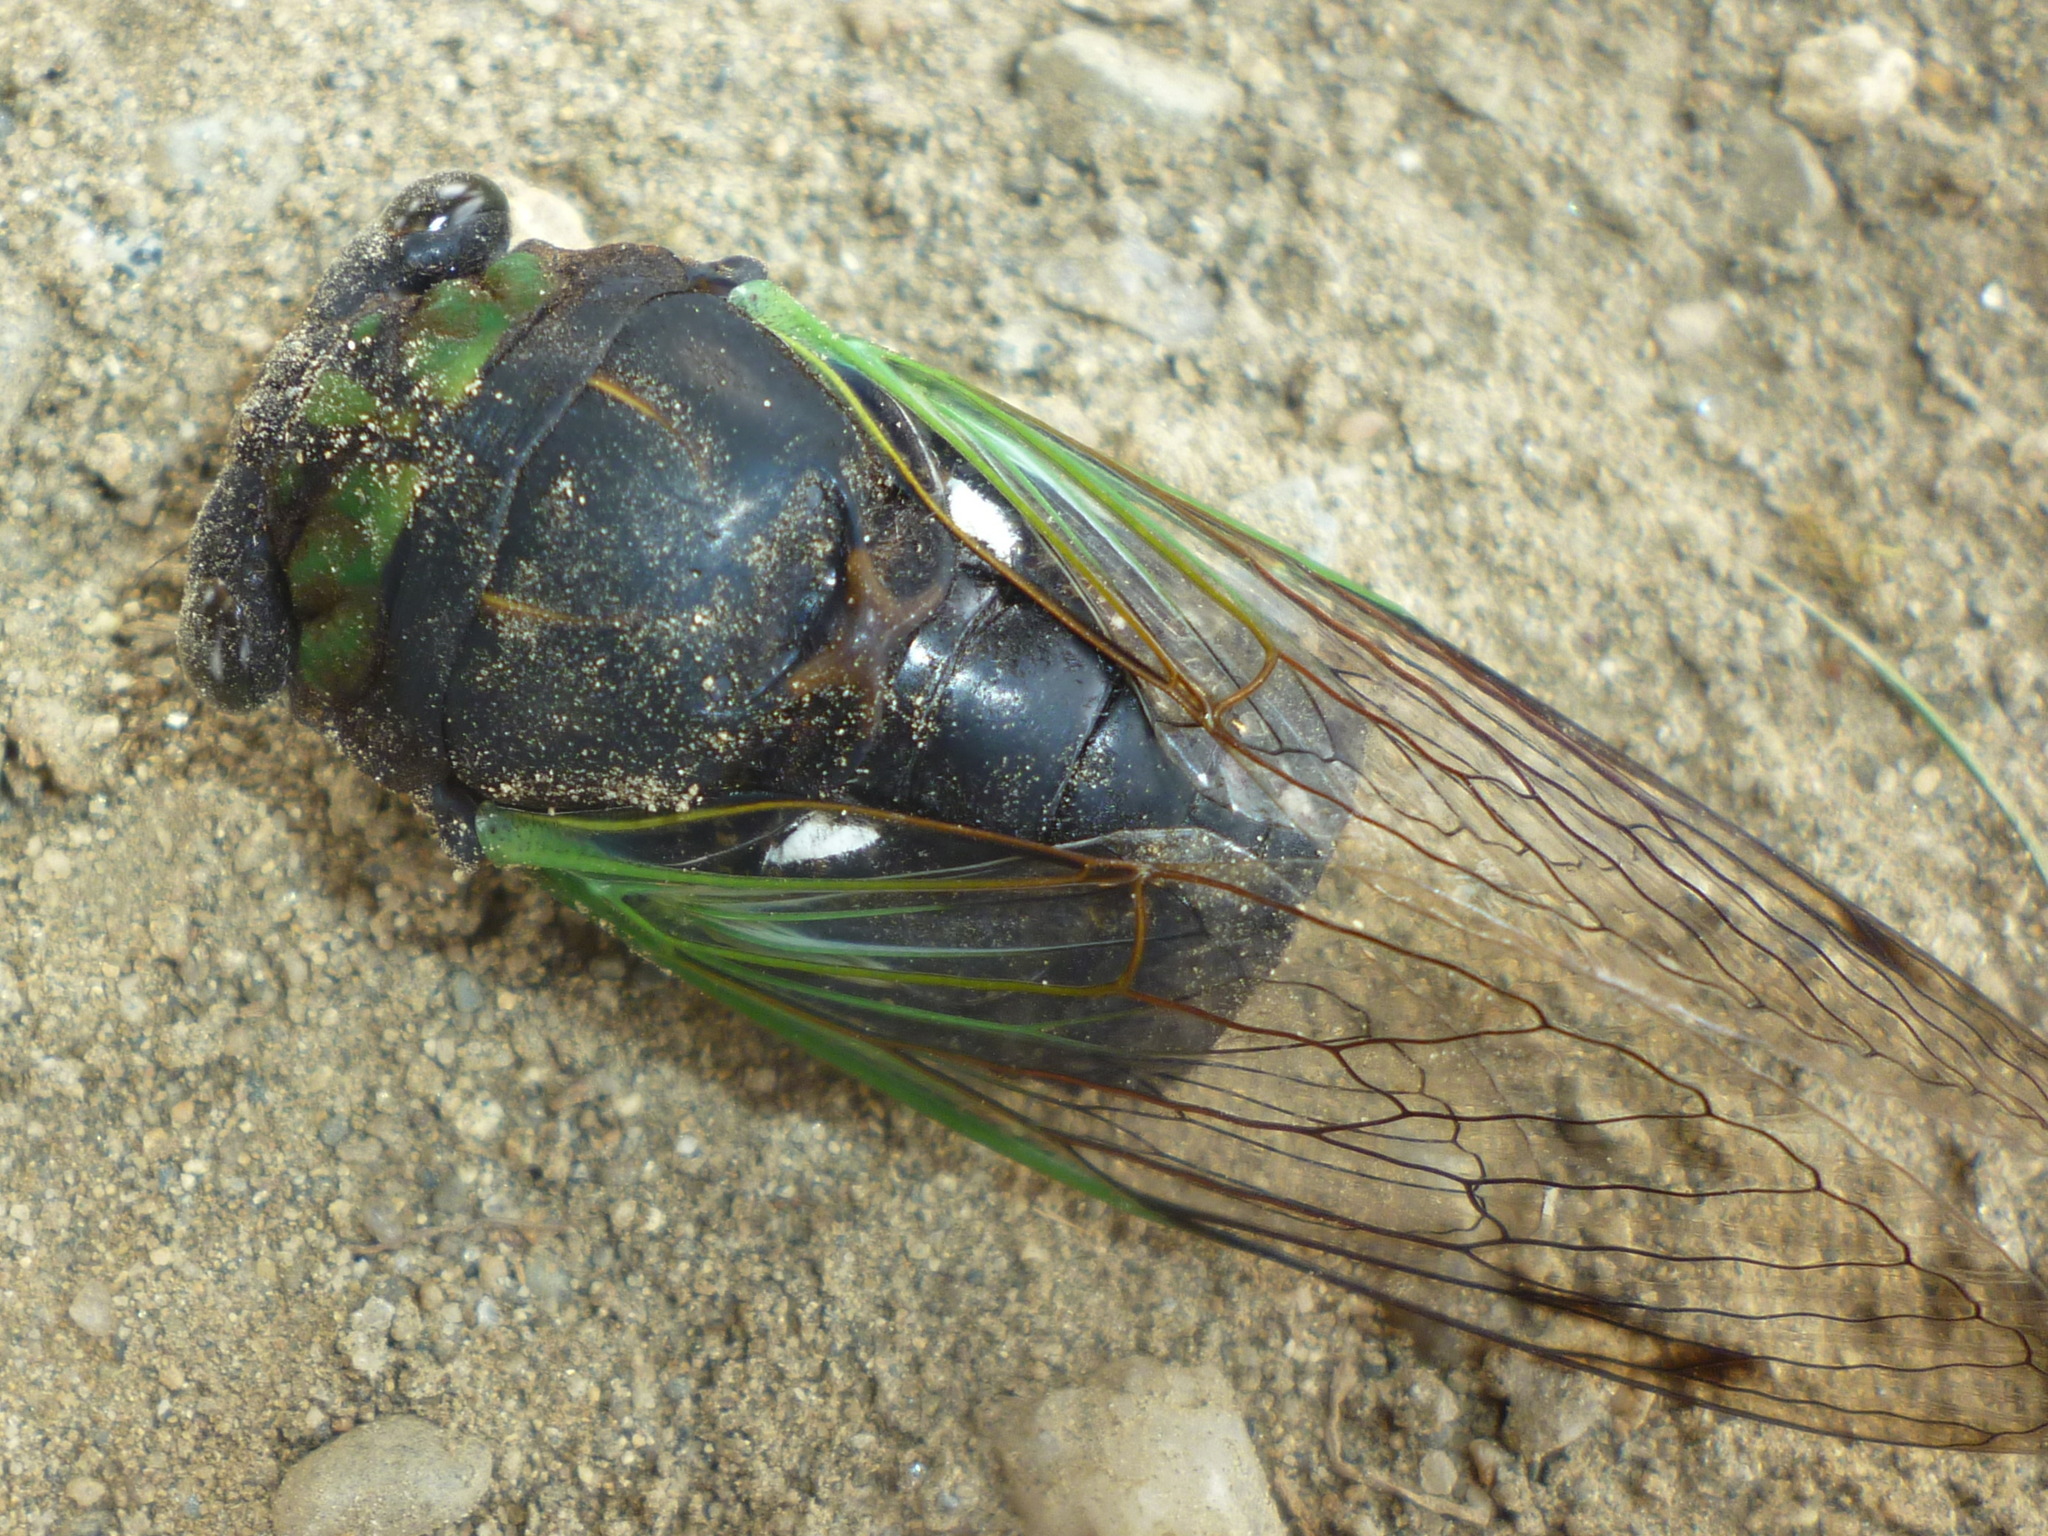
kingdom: Animalia
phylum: Arthropoda
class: Insecta
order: Hemiptera
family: Cicadidae
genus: Neotibicen
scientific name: Neotibicen tibicen
